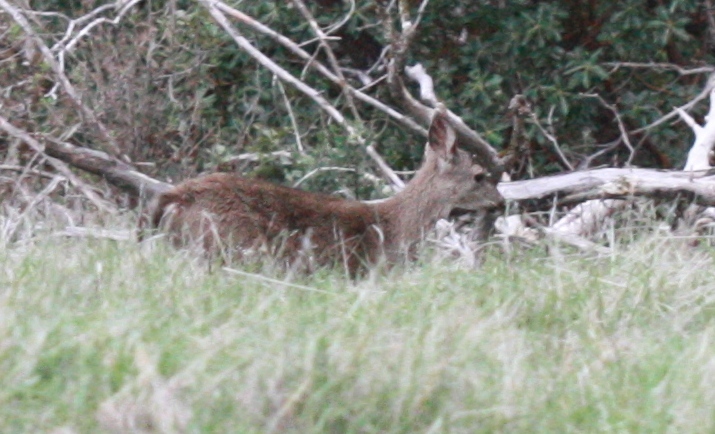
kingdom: Animalia
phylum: Chordata
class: Mammalia
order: Artiodactyla
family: Cervidae
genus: Odocoileus
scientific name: Odocoileus hemionus
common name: Mule deer
